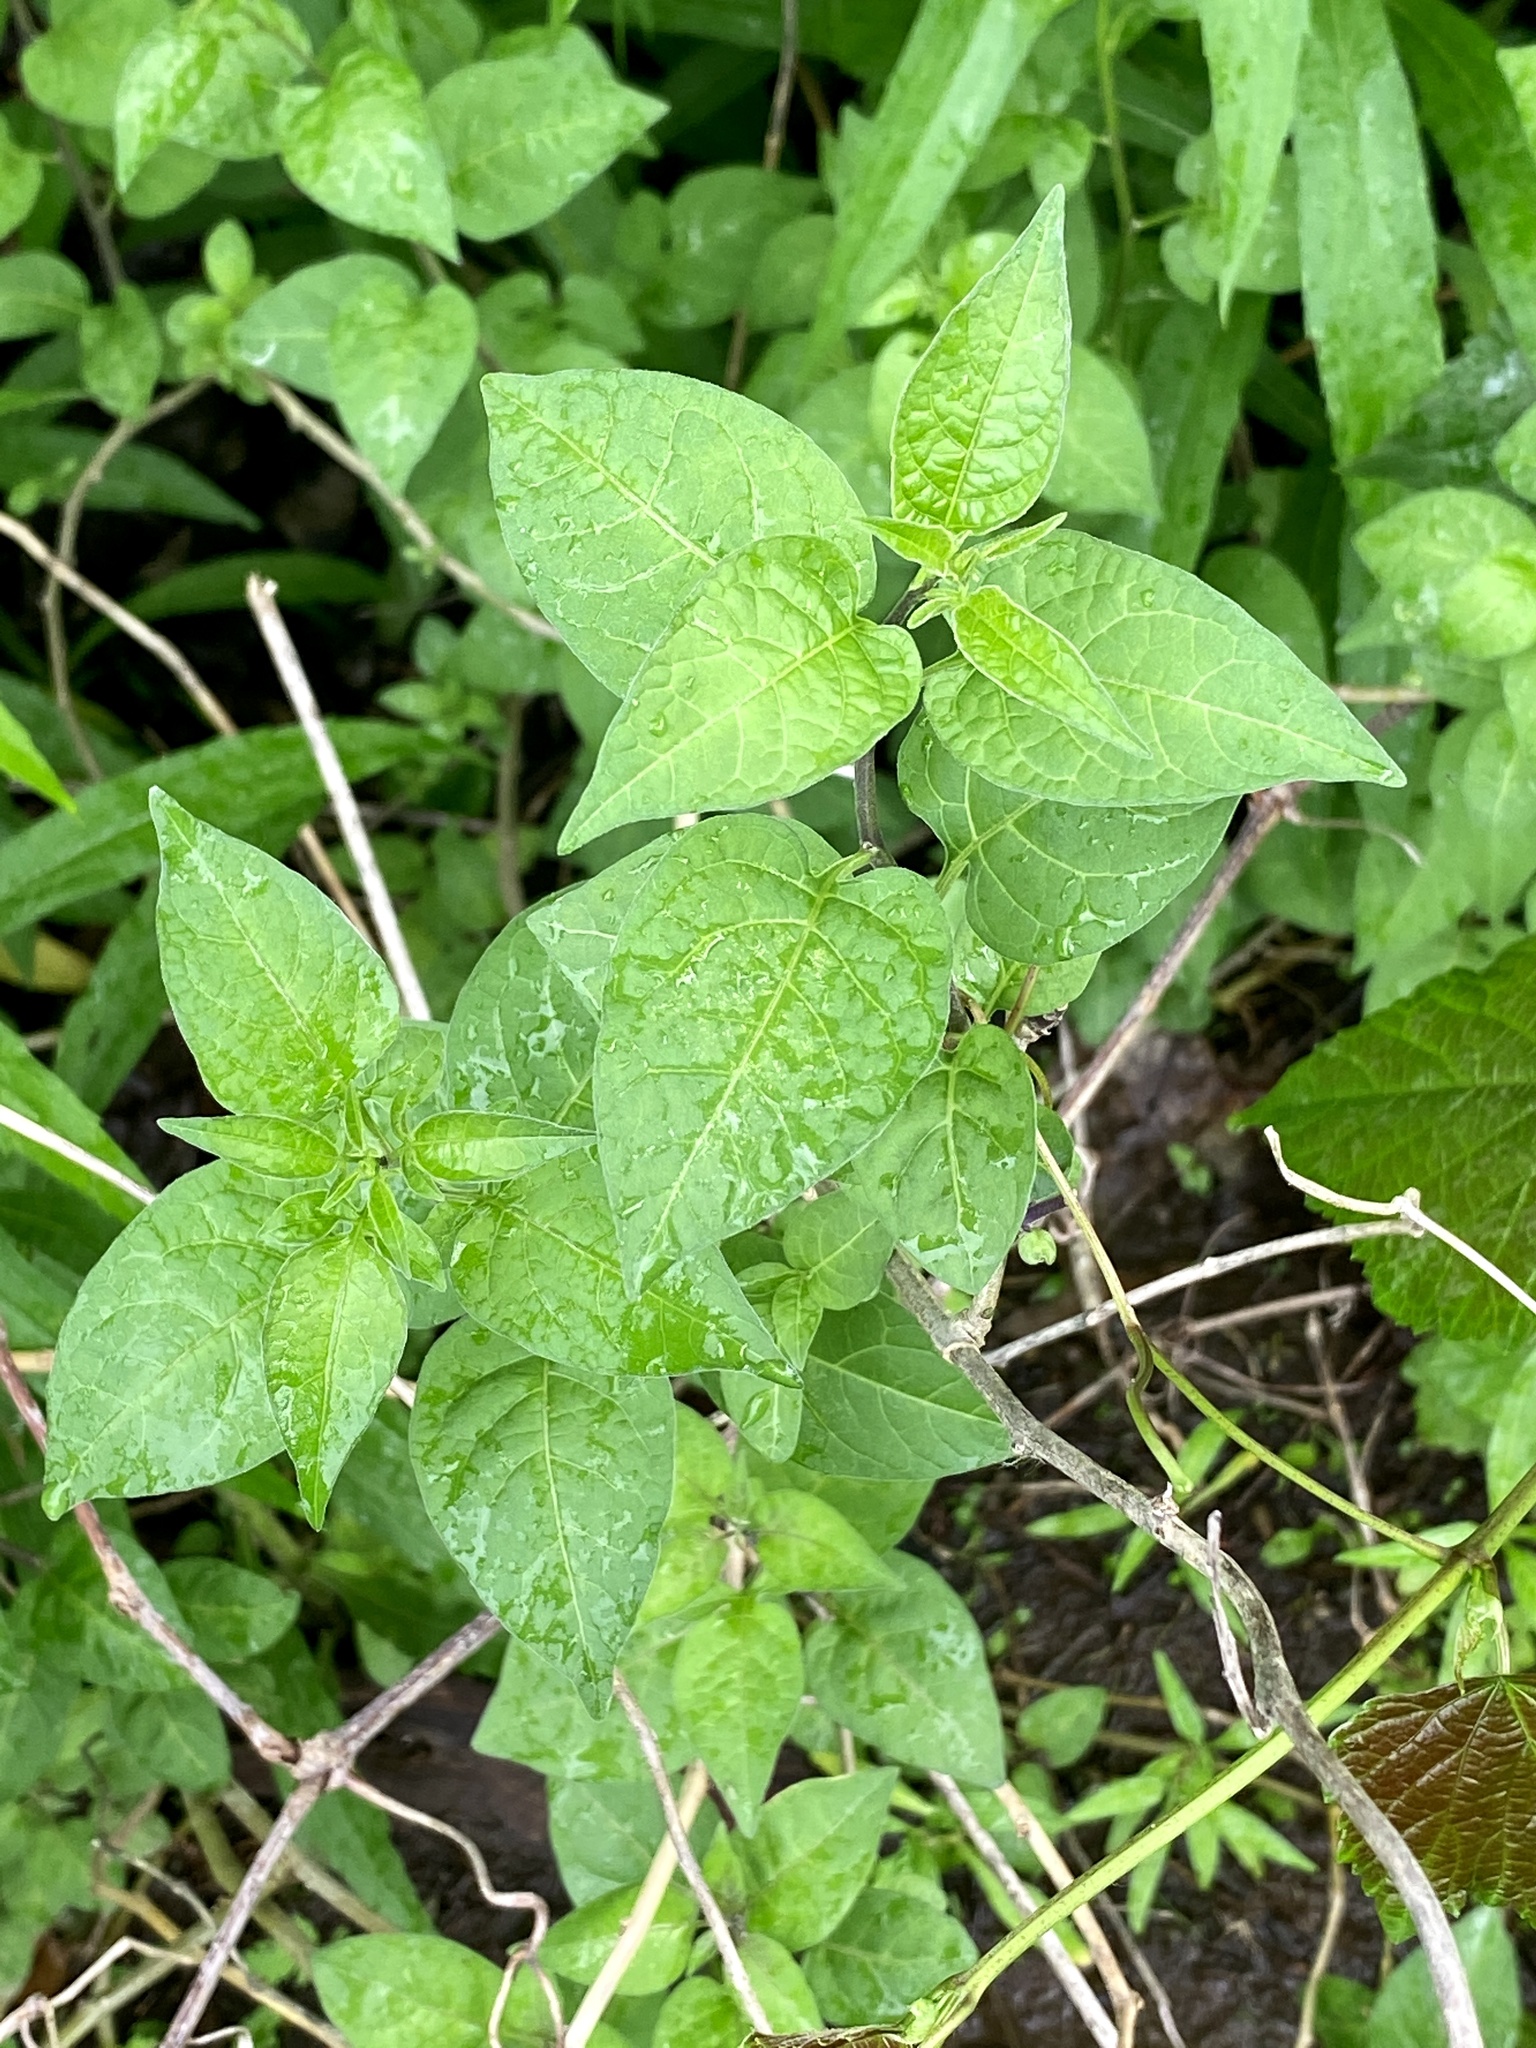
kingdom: Plantae
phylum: Tracheophyta
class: Magnoliopsida
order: Solanales
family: Solanaceae
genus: Solanum
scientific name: Solanum dulcamara
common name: Climbing nightshade
